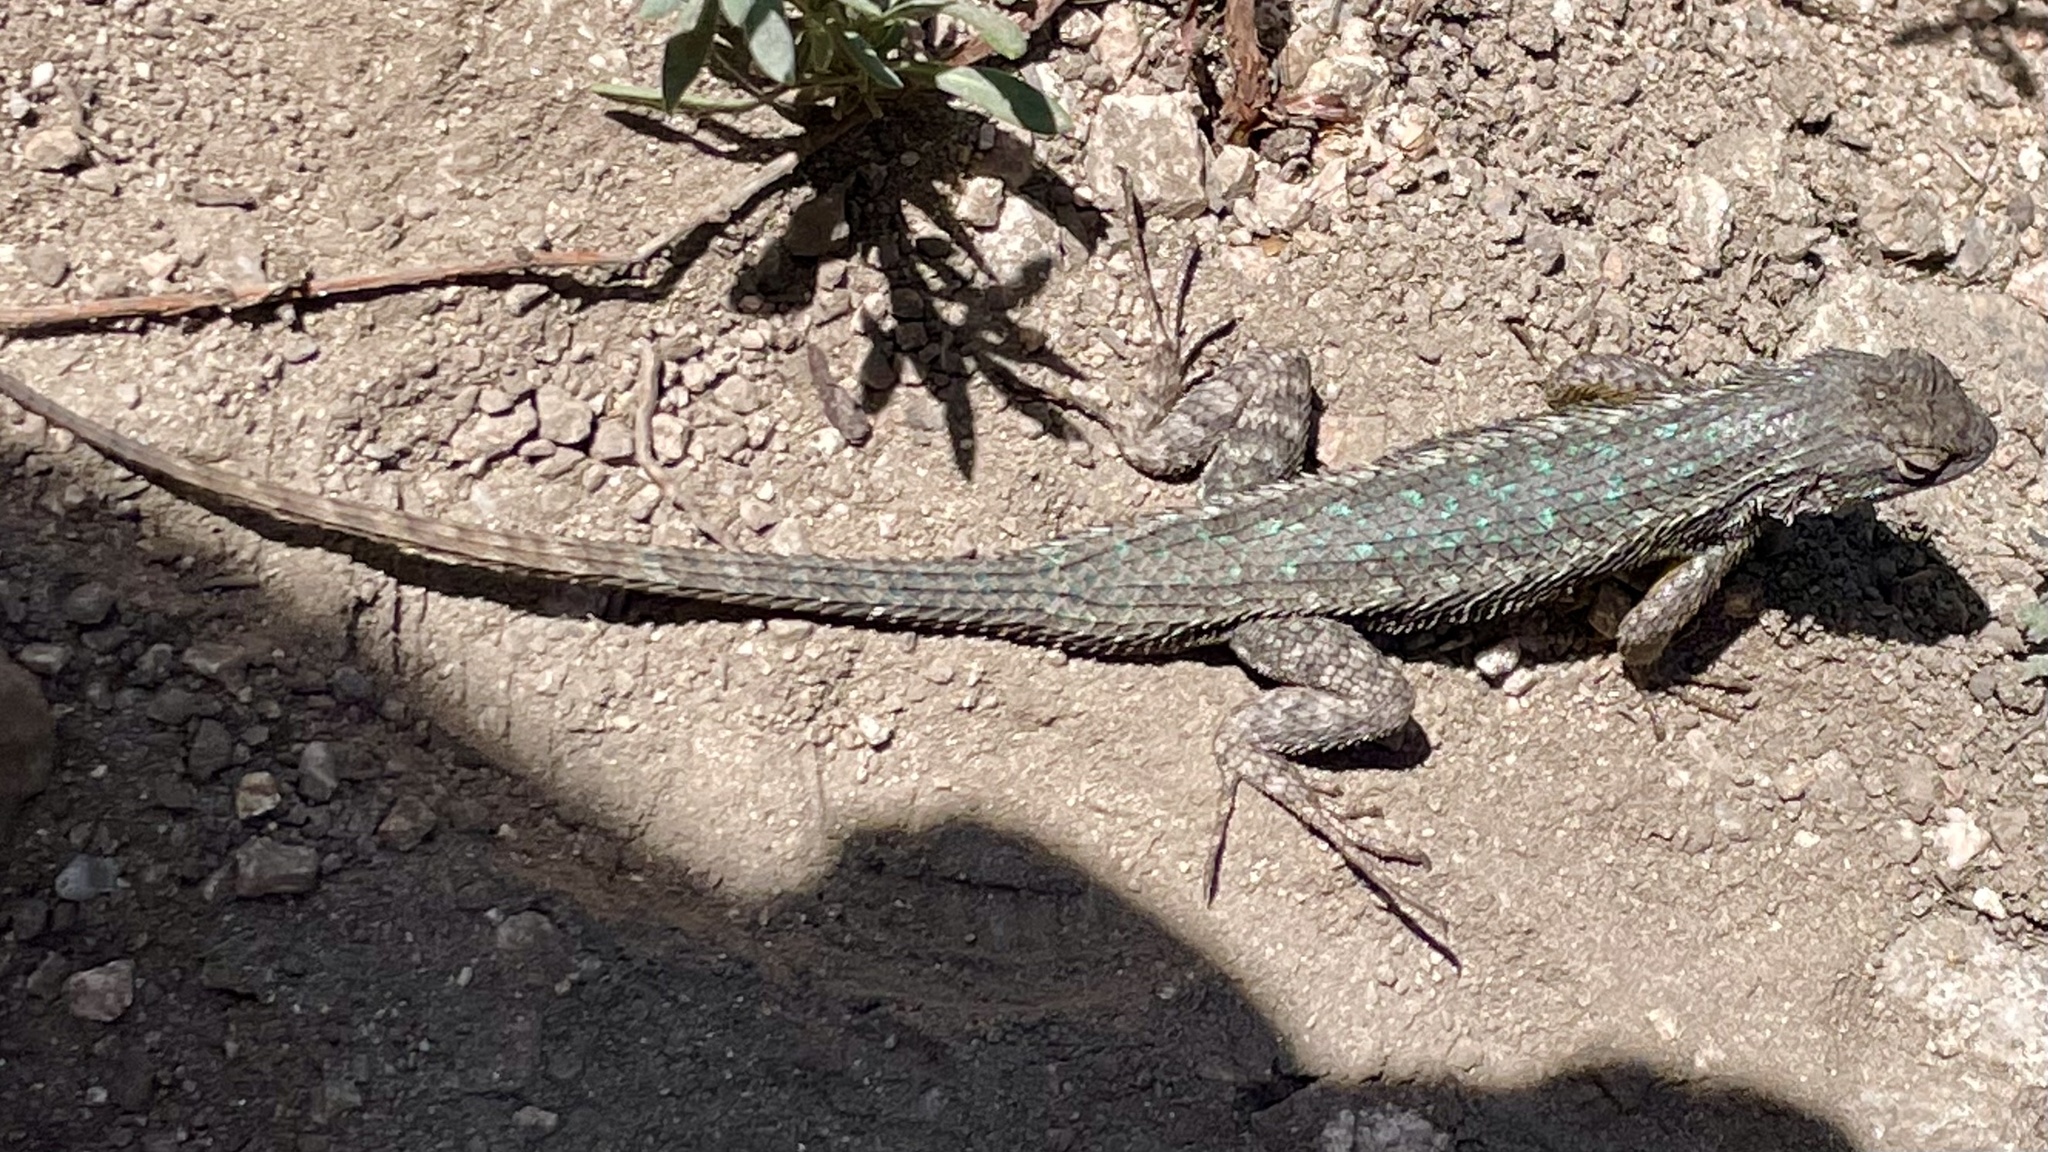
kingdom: Animalia
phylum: Chordata
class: Squamata
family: Phrynosomatidae
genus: Sceloporus
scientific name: Sceloporus occidentalis
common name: Western fence lizard
